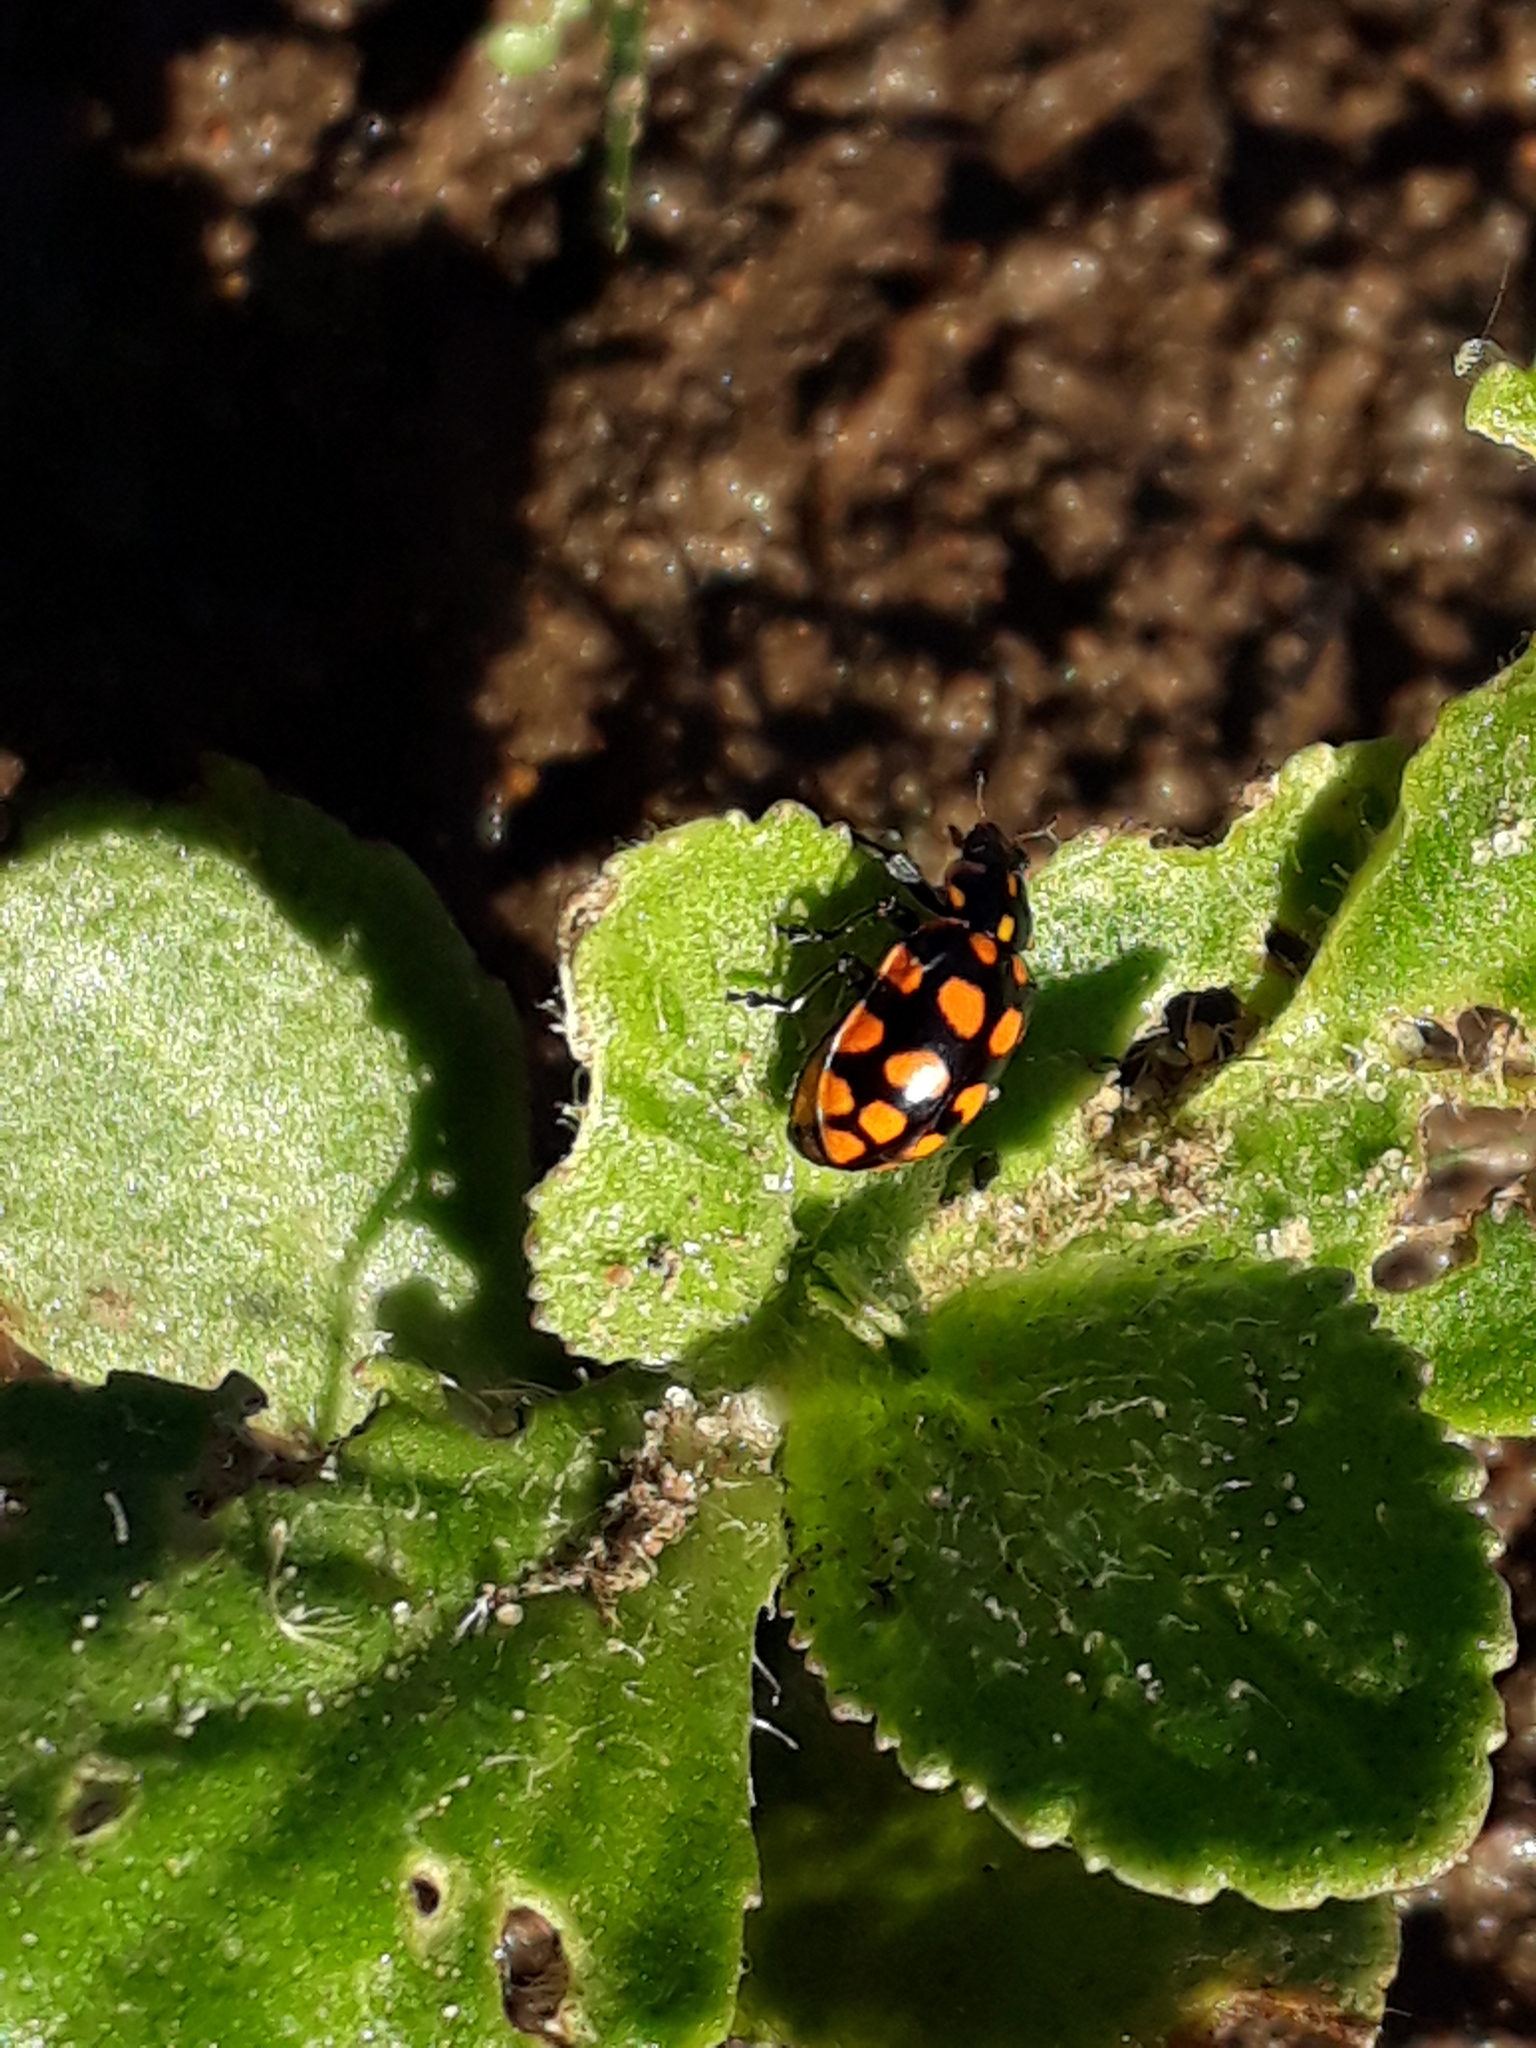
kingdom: Animalia
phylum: Arthropoda
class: Insecta
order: Coleoptera
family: Coccinellidae
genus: Coleomegilla
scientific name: Coleomegilla
